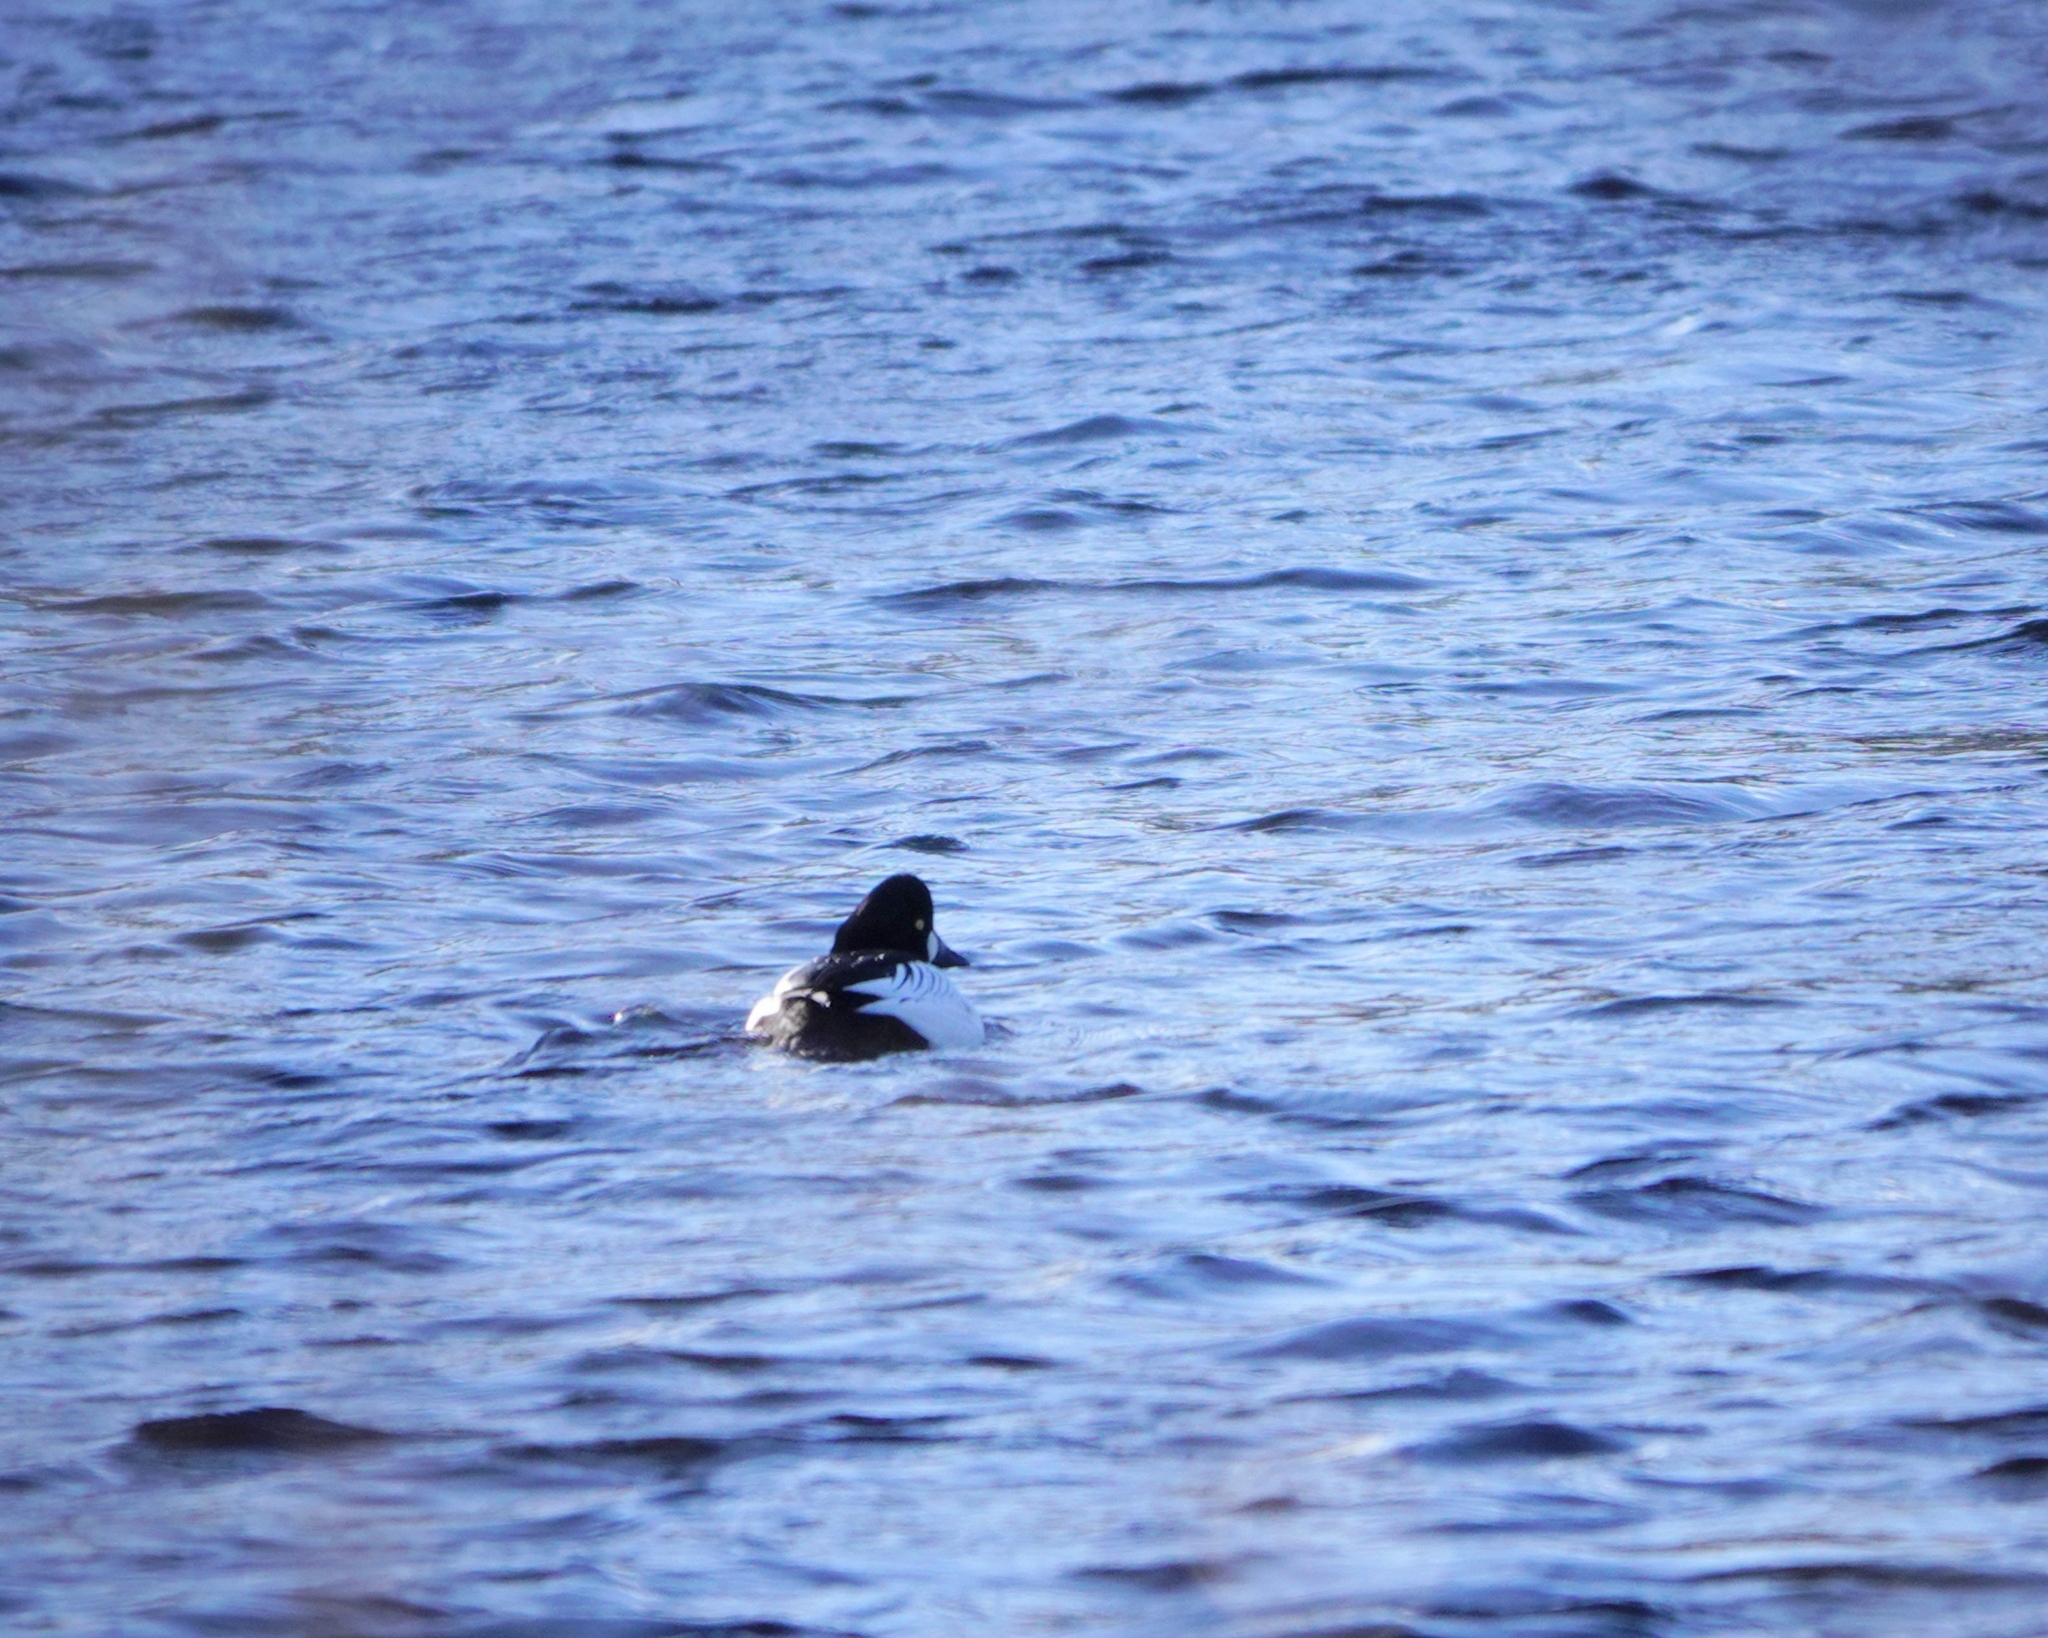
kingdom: Animalia
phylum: Chordata
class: Aves
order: Anseriformes
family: Anatidae
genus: Bucephala
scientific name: Bucephala clangula
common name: Common goldeneye
